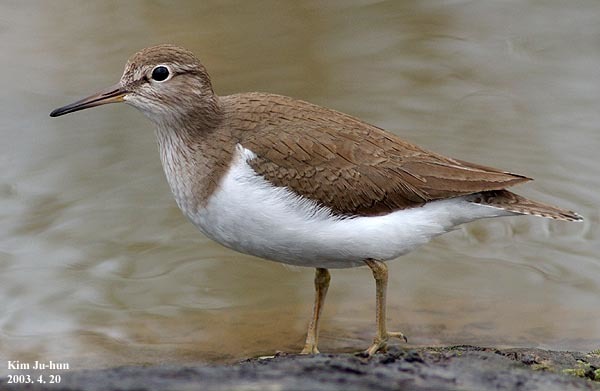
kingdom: Animalia
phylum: Chordata
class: Aves
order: Charadriiformes
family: Scolopacidae
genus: Actitis
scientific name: Actitis hypoleucos
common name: Common sandpiper
